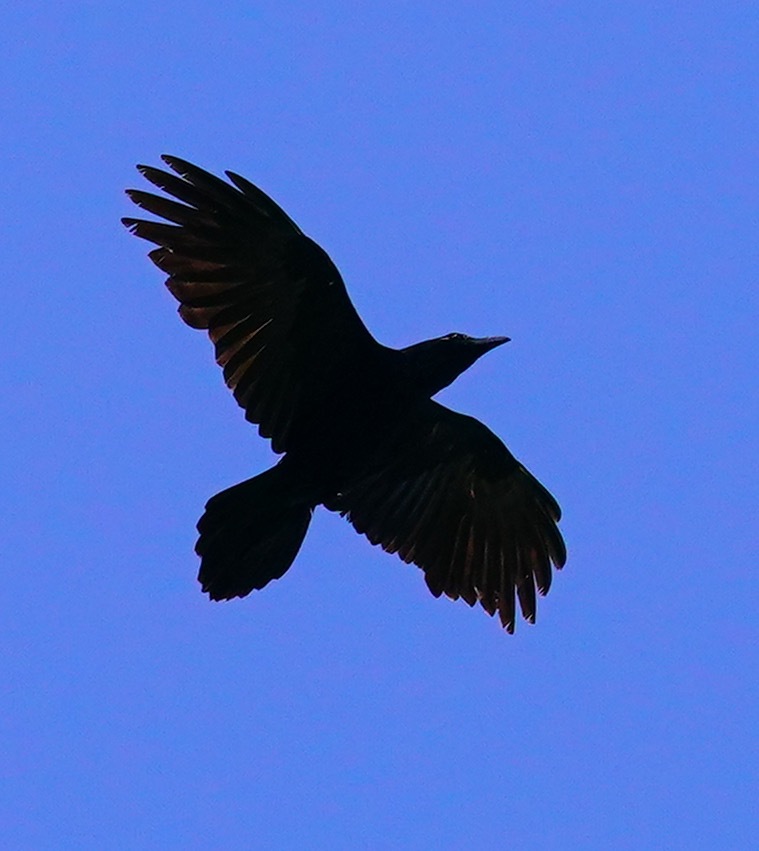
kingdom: Animalia
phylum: Chordata
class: Aves
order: Passeriformes
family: Corvidae
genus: Corvus
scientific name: Corvus corax
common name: Common raven
